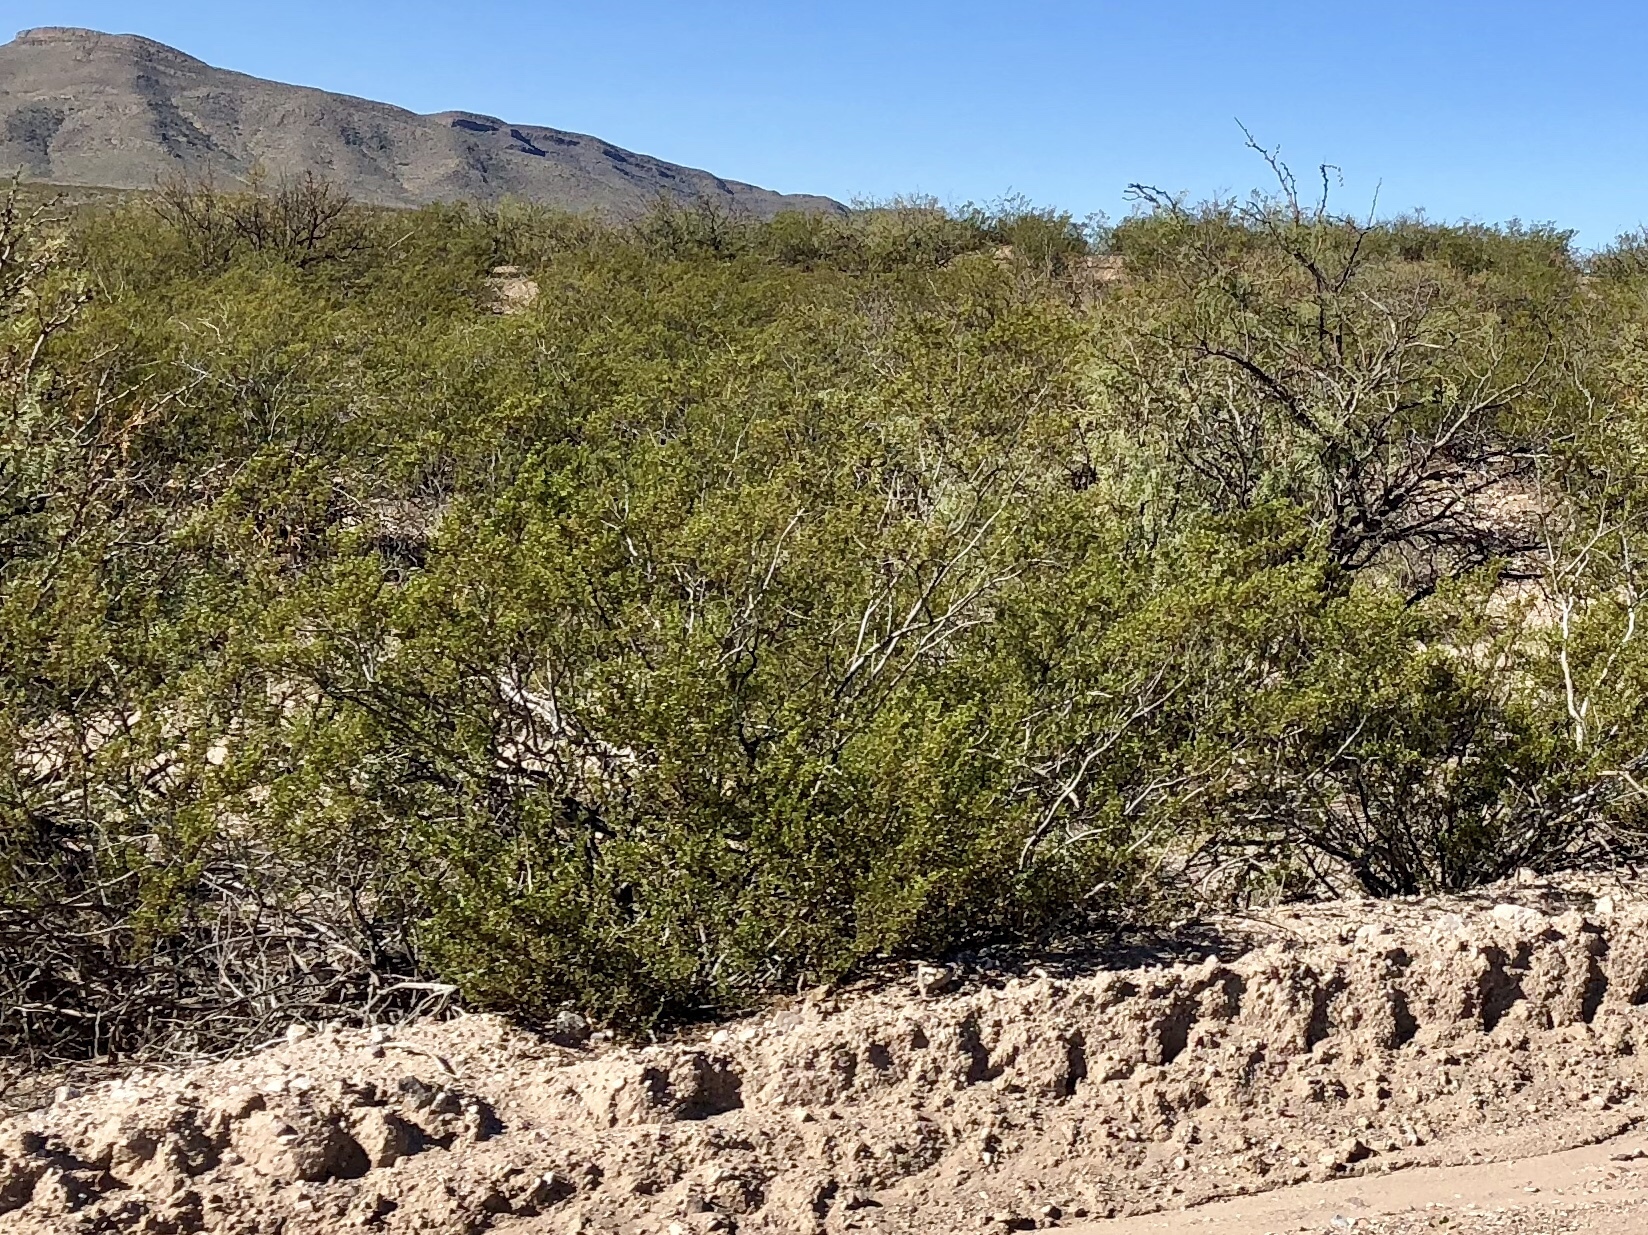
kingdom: Plantae
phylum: Tracheophyta
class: Magnoliopsida
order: Zygophyllales
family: Zygophyllaceae
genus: Larrea
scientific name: Larrea tridentata
